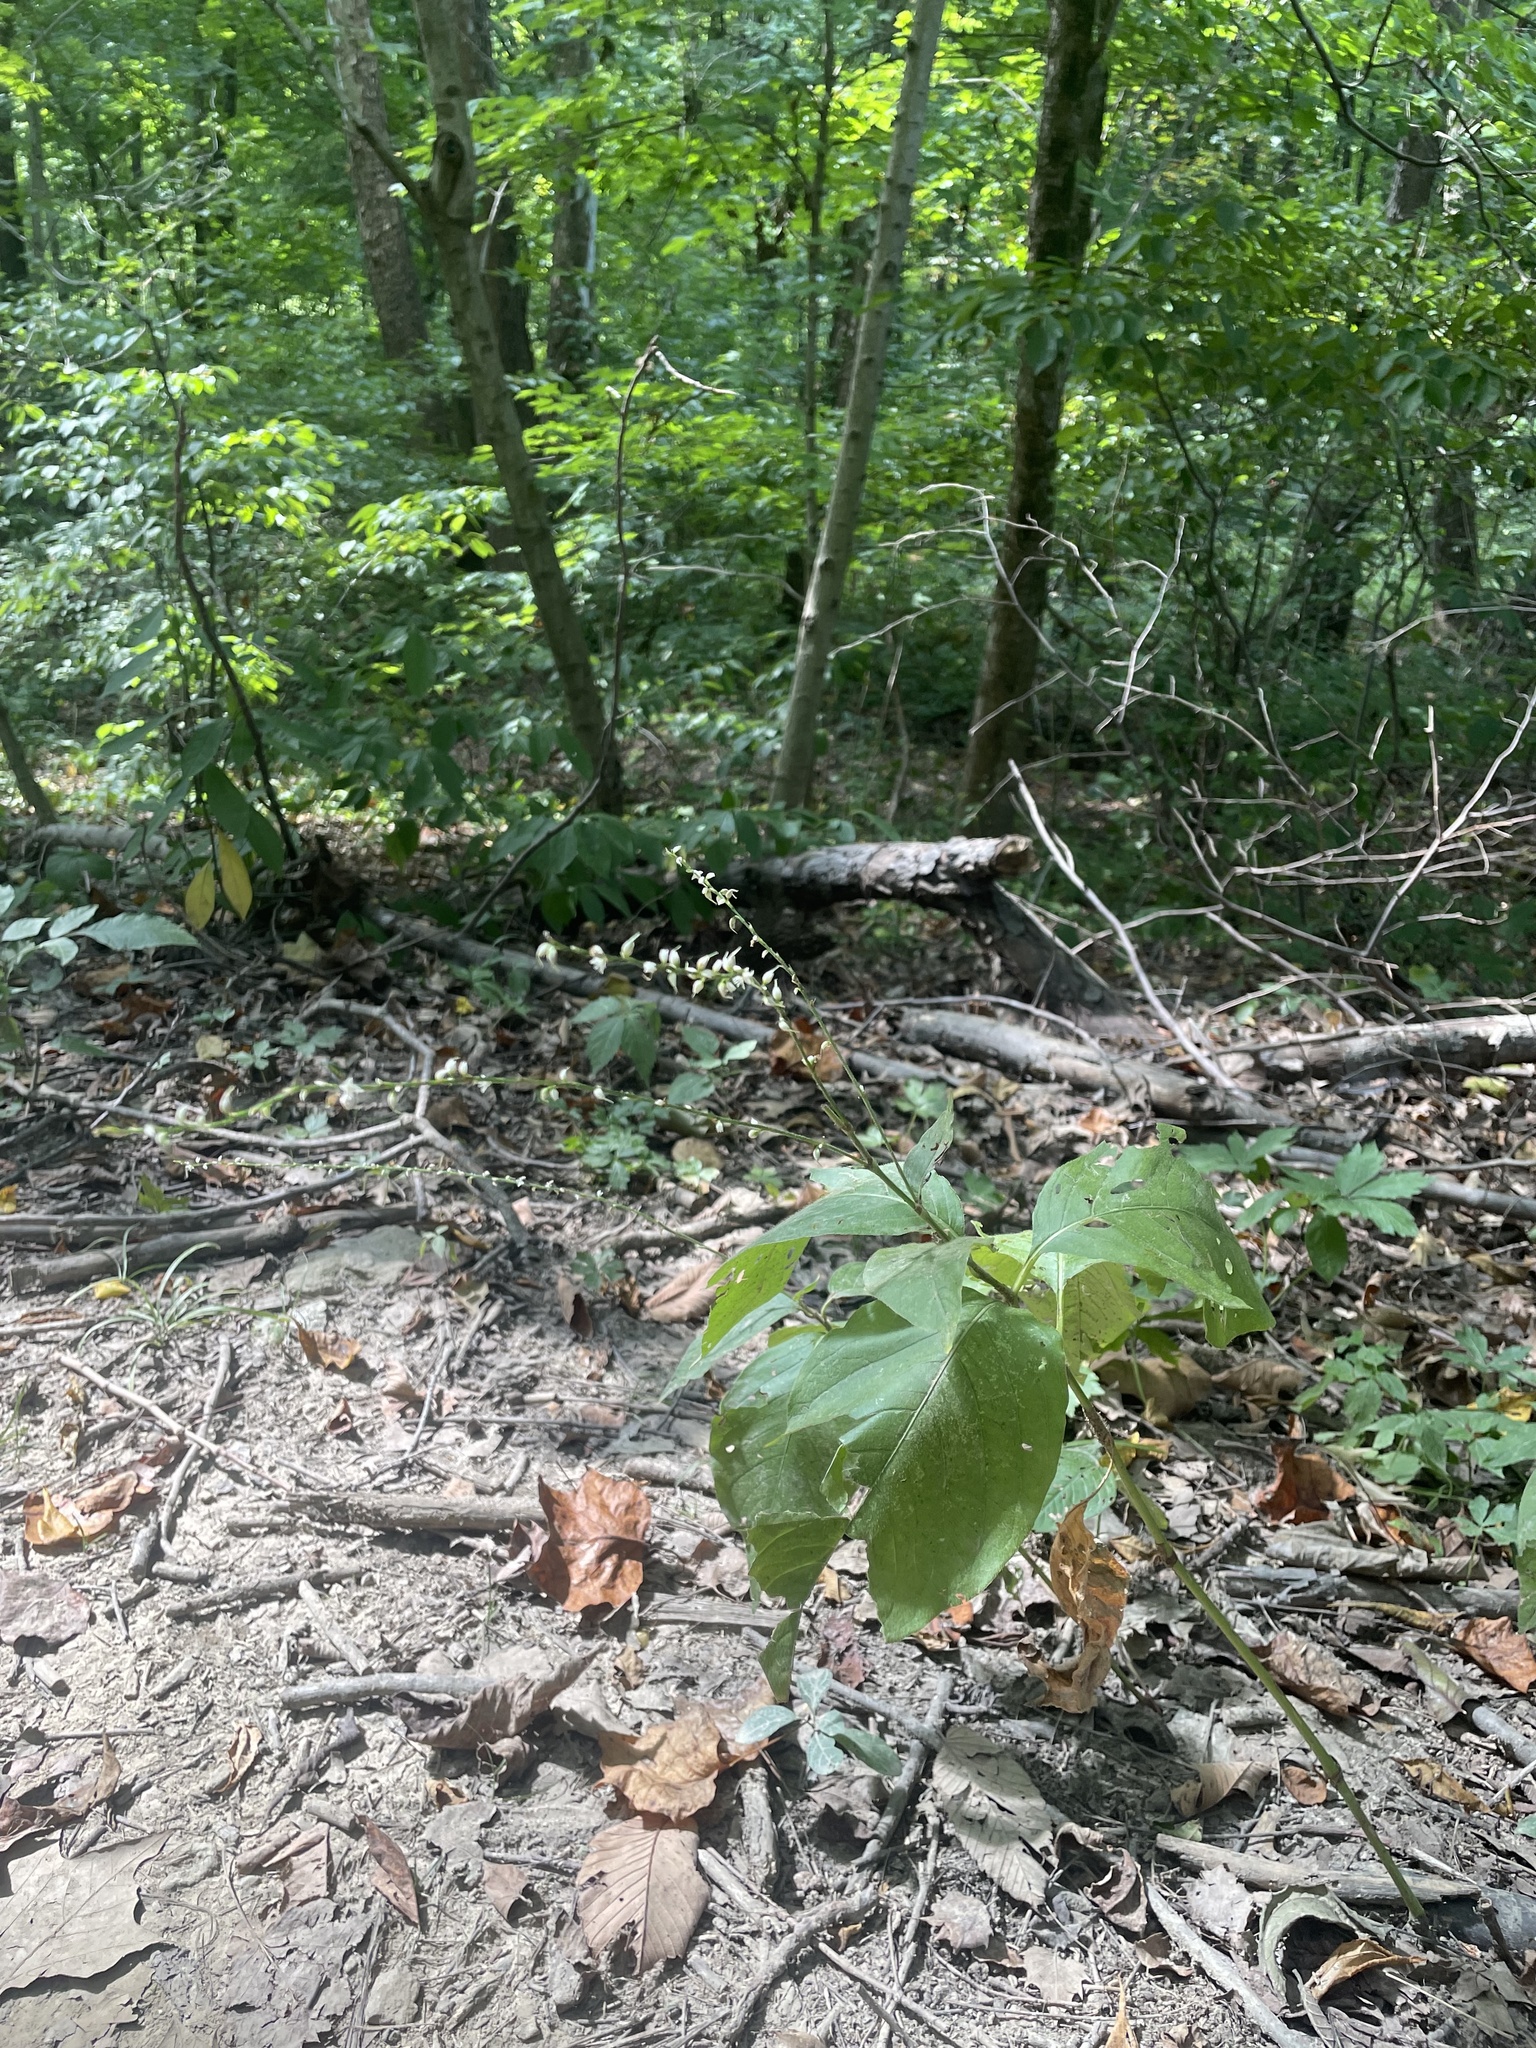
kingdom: Plantae
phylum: Tracheophyta
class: Magnoliopsida
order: Caryophyllales
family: Polygonaceae
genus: Persicaria
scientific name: Persicaria virginiana
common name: Jumpseed
